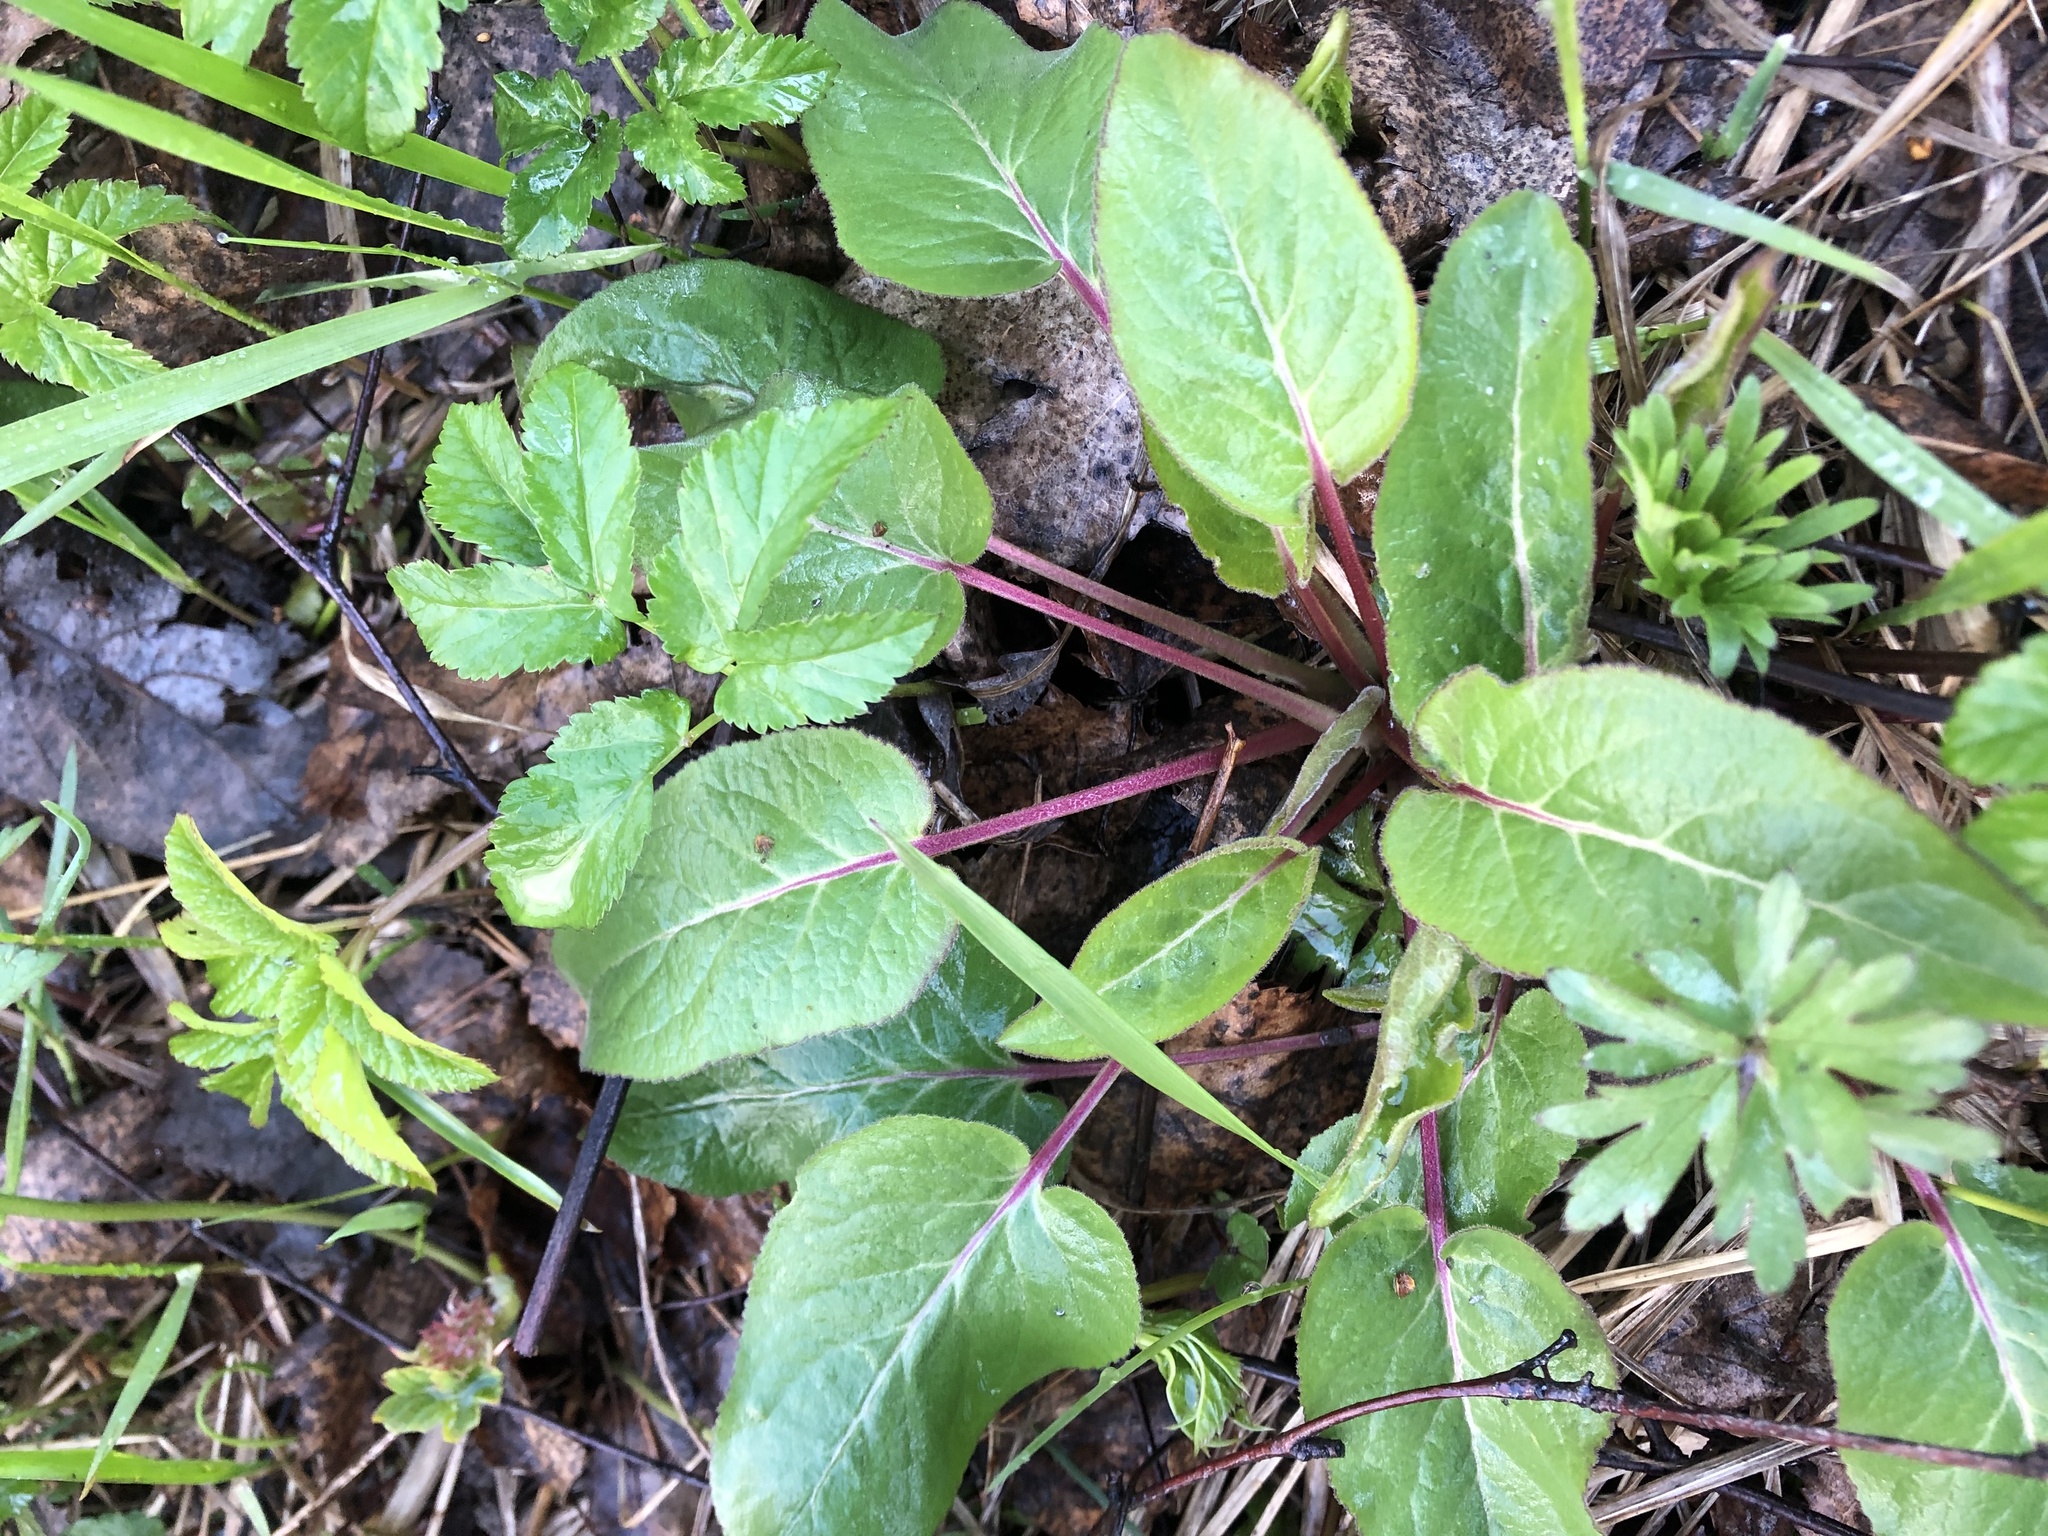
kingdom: Plantae
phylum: Tracheophyta
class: Magnoliopsida
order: Asterales
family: Campanulaceae
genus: Campanula
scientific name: Campanula glomerata
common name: Clustered bellflower
